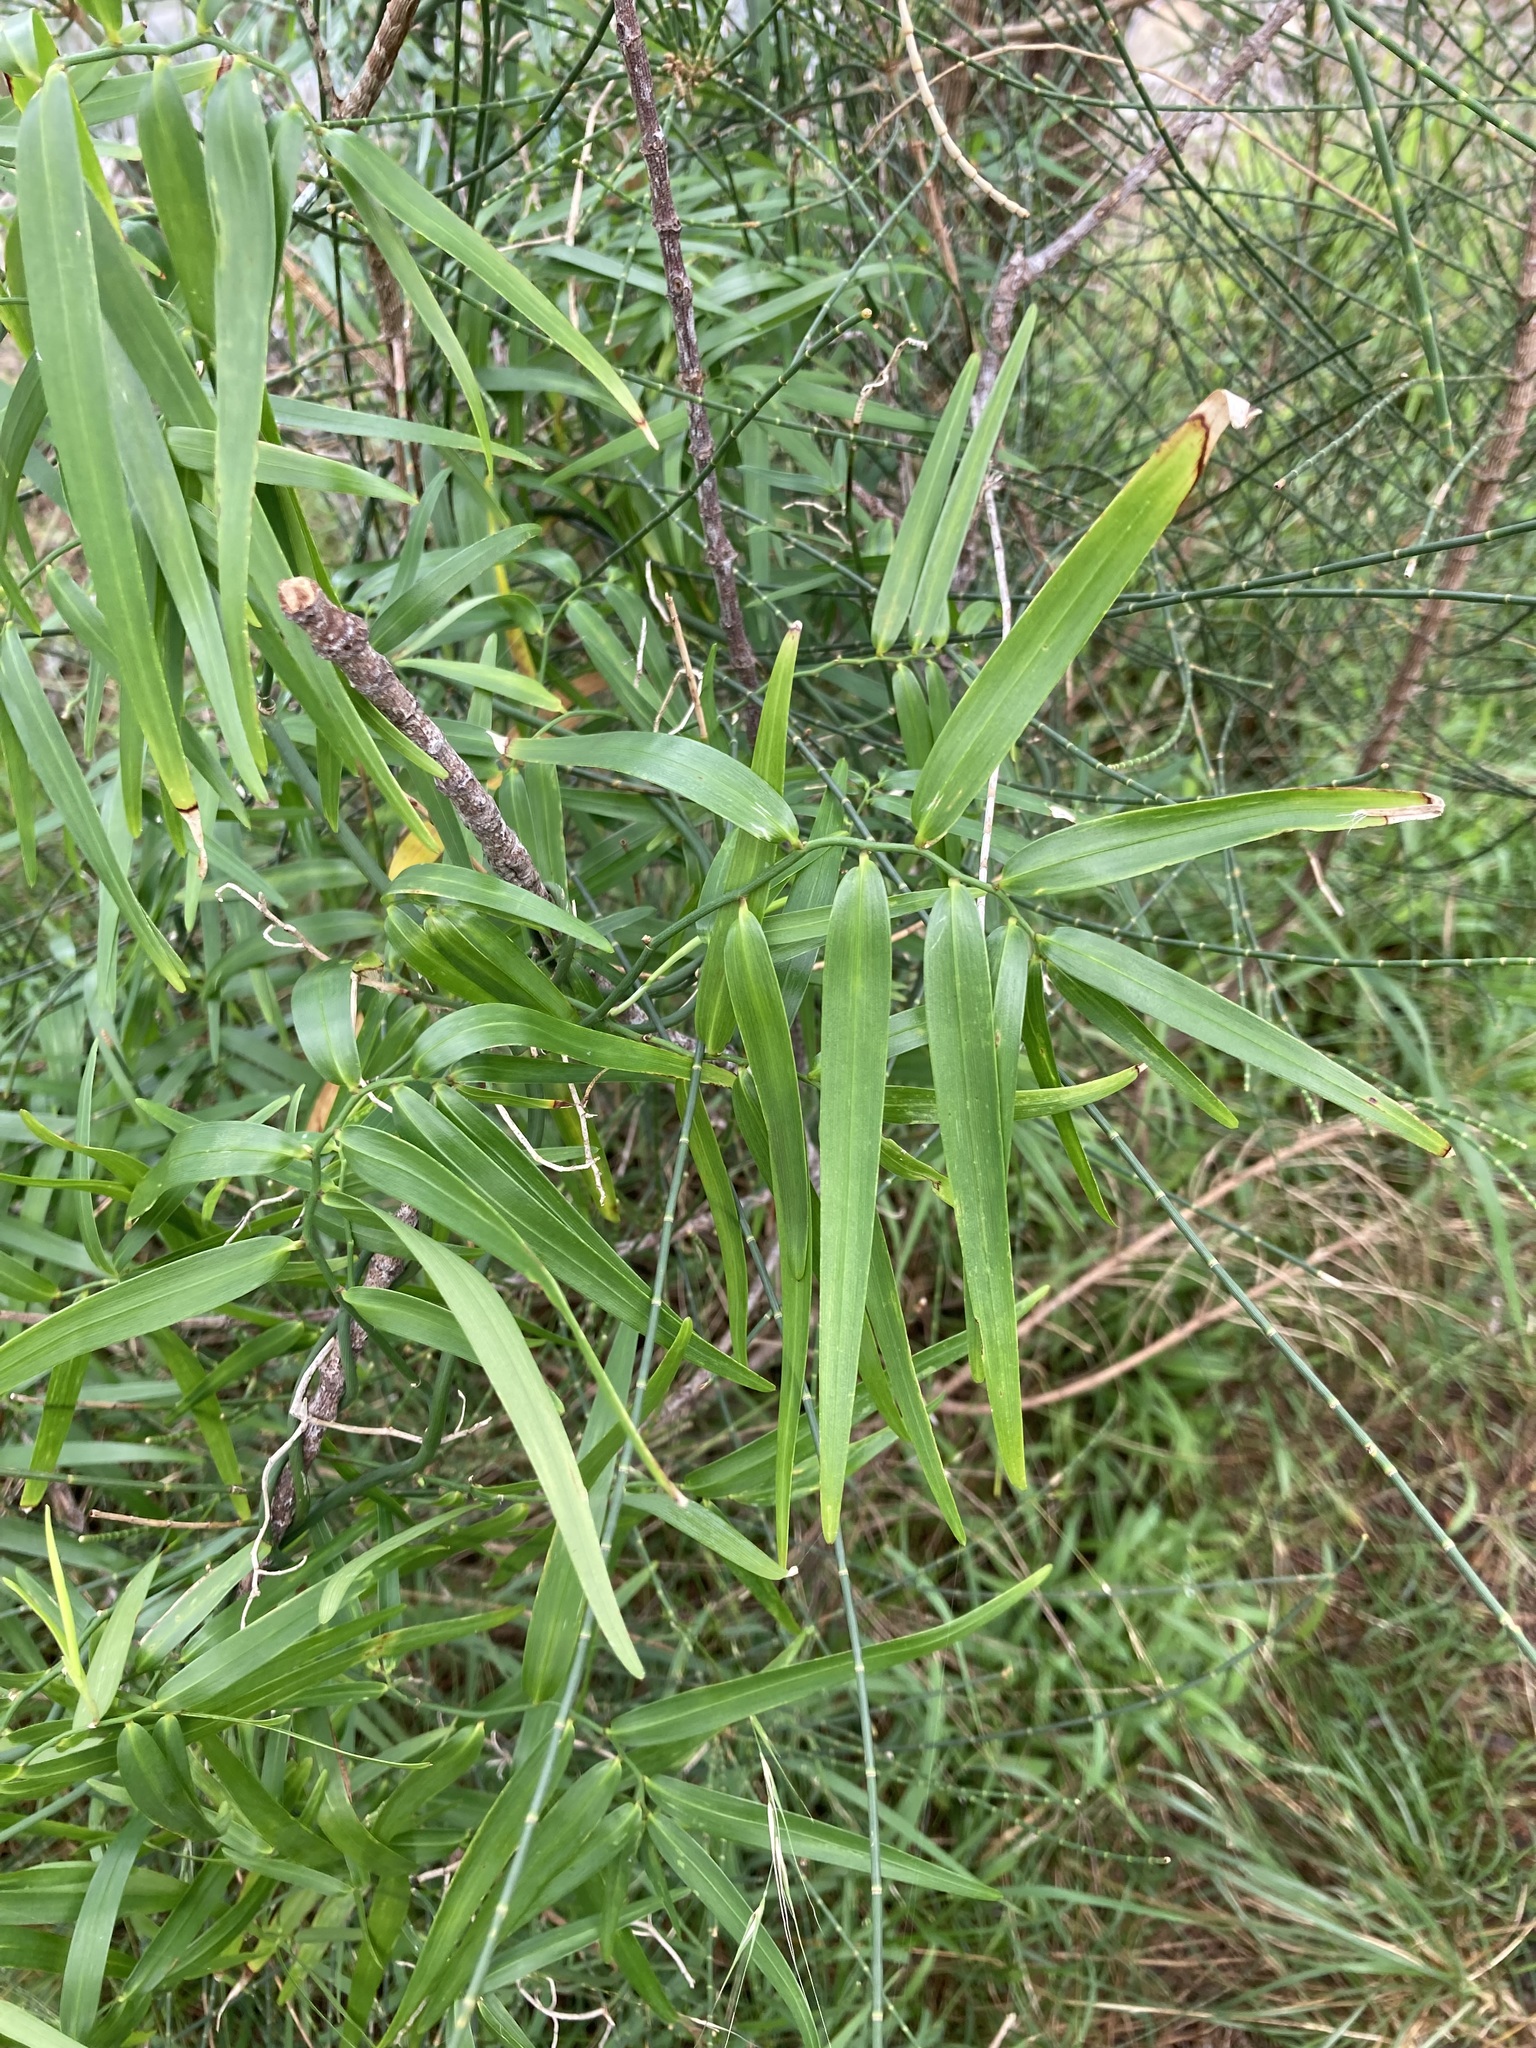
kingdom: Plantae
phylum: Tracheophyta
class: Liliopsida
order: Asparagales
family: Asphodelaceae
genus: Geitonoplesium
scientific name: Geitonoplesium cymosum
